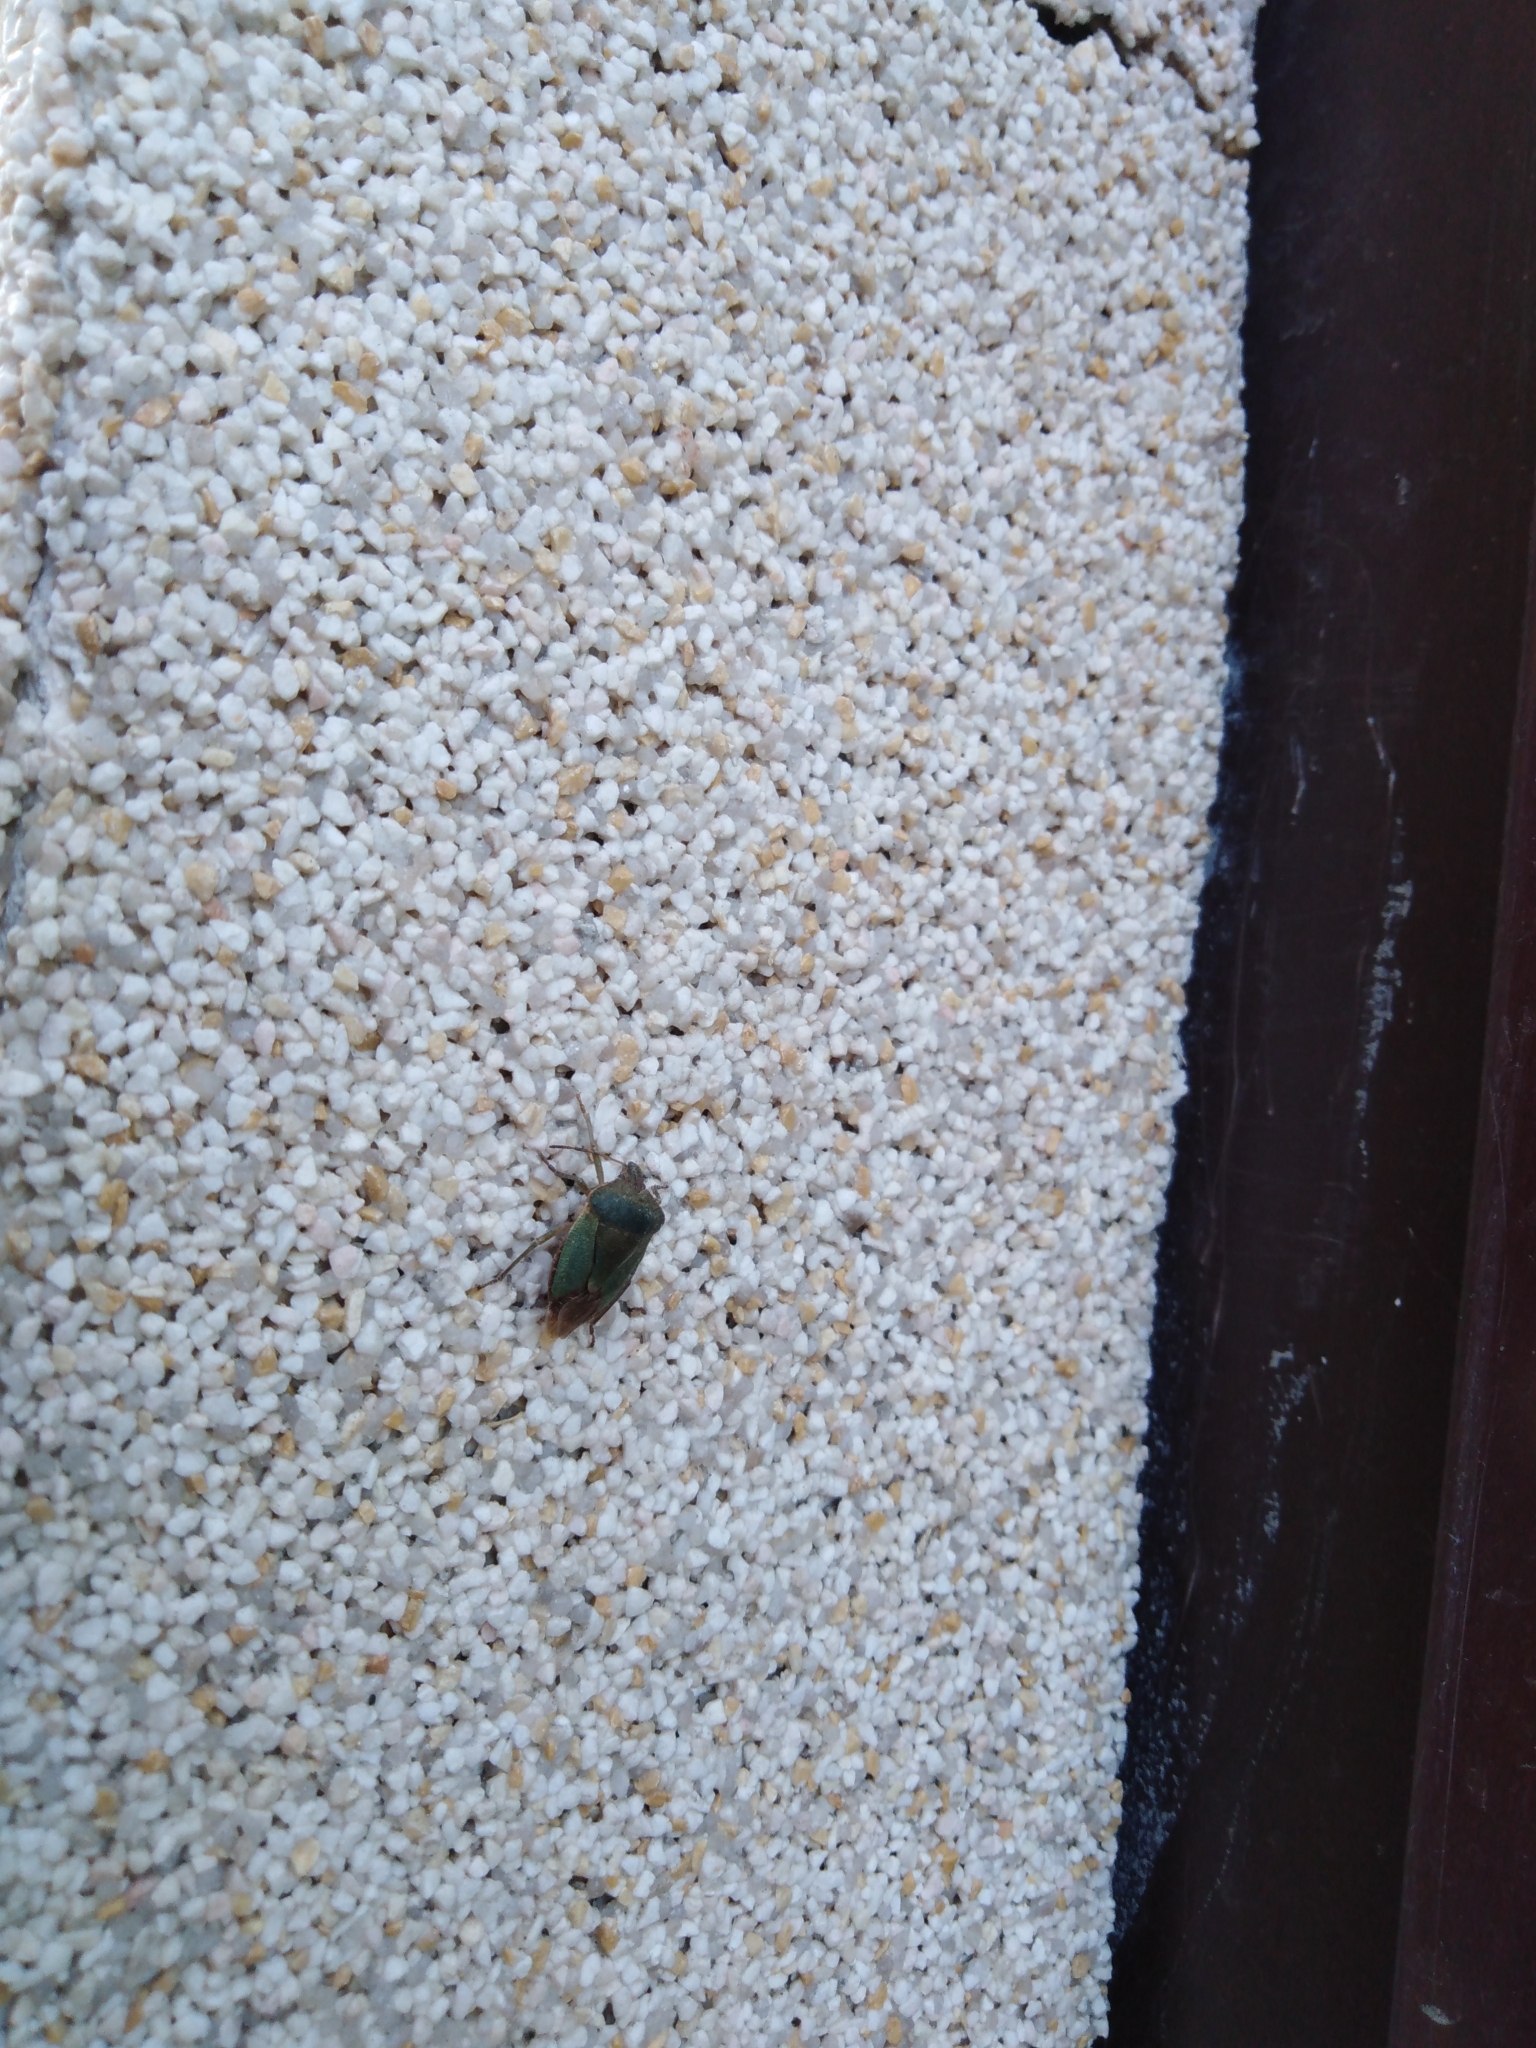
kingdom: Animalia
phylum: Arthropoda
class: Insecta
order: Hemiptera
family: Pentatomidae
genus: Palomena
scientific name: Palomena prasina
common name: Green shieldbug
